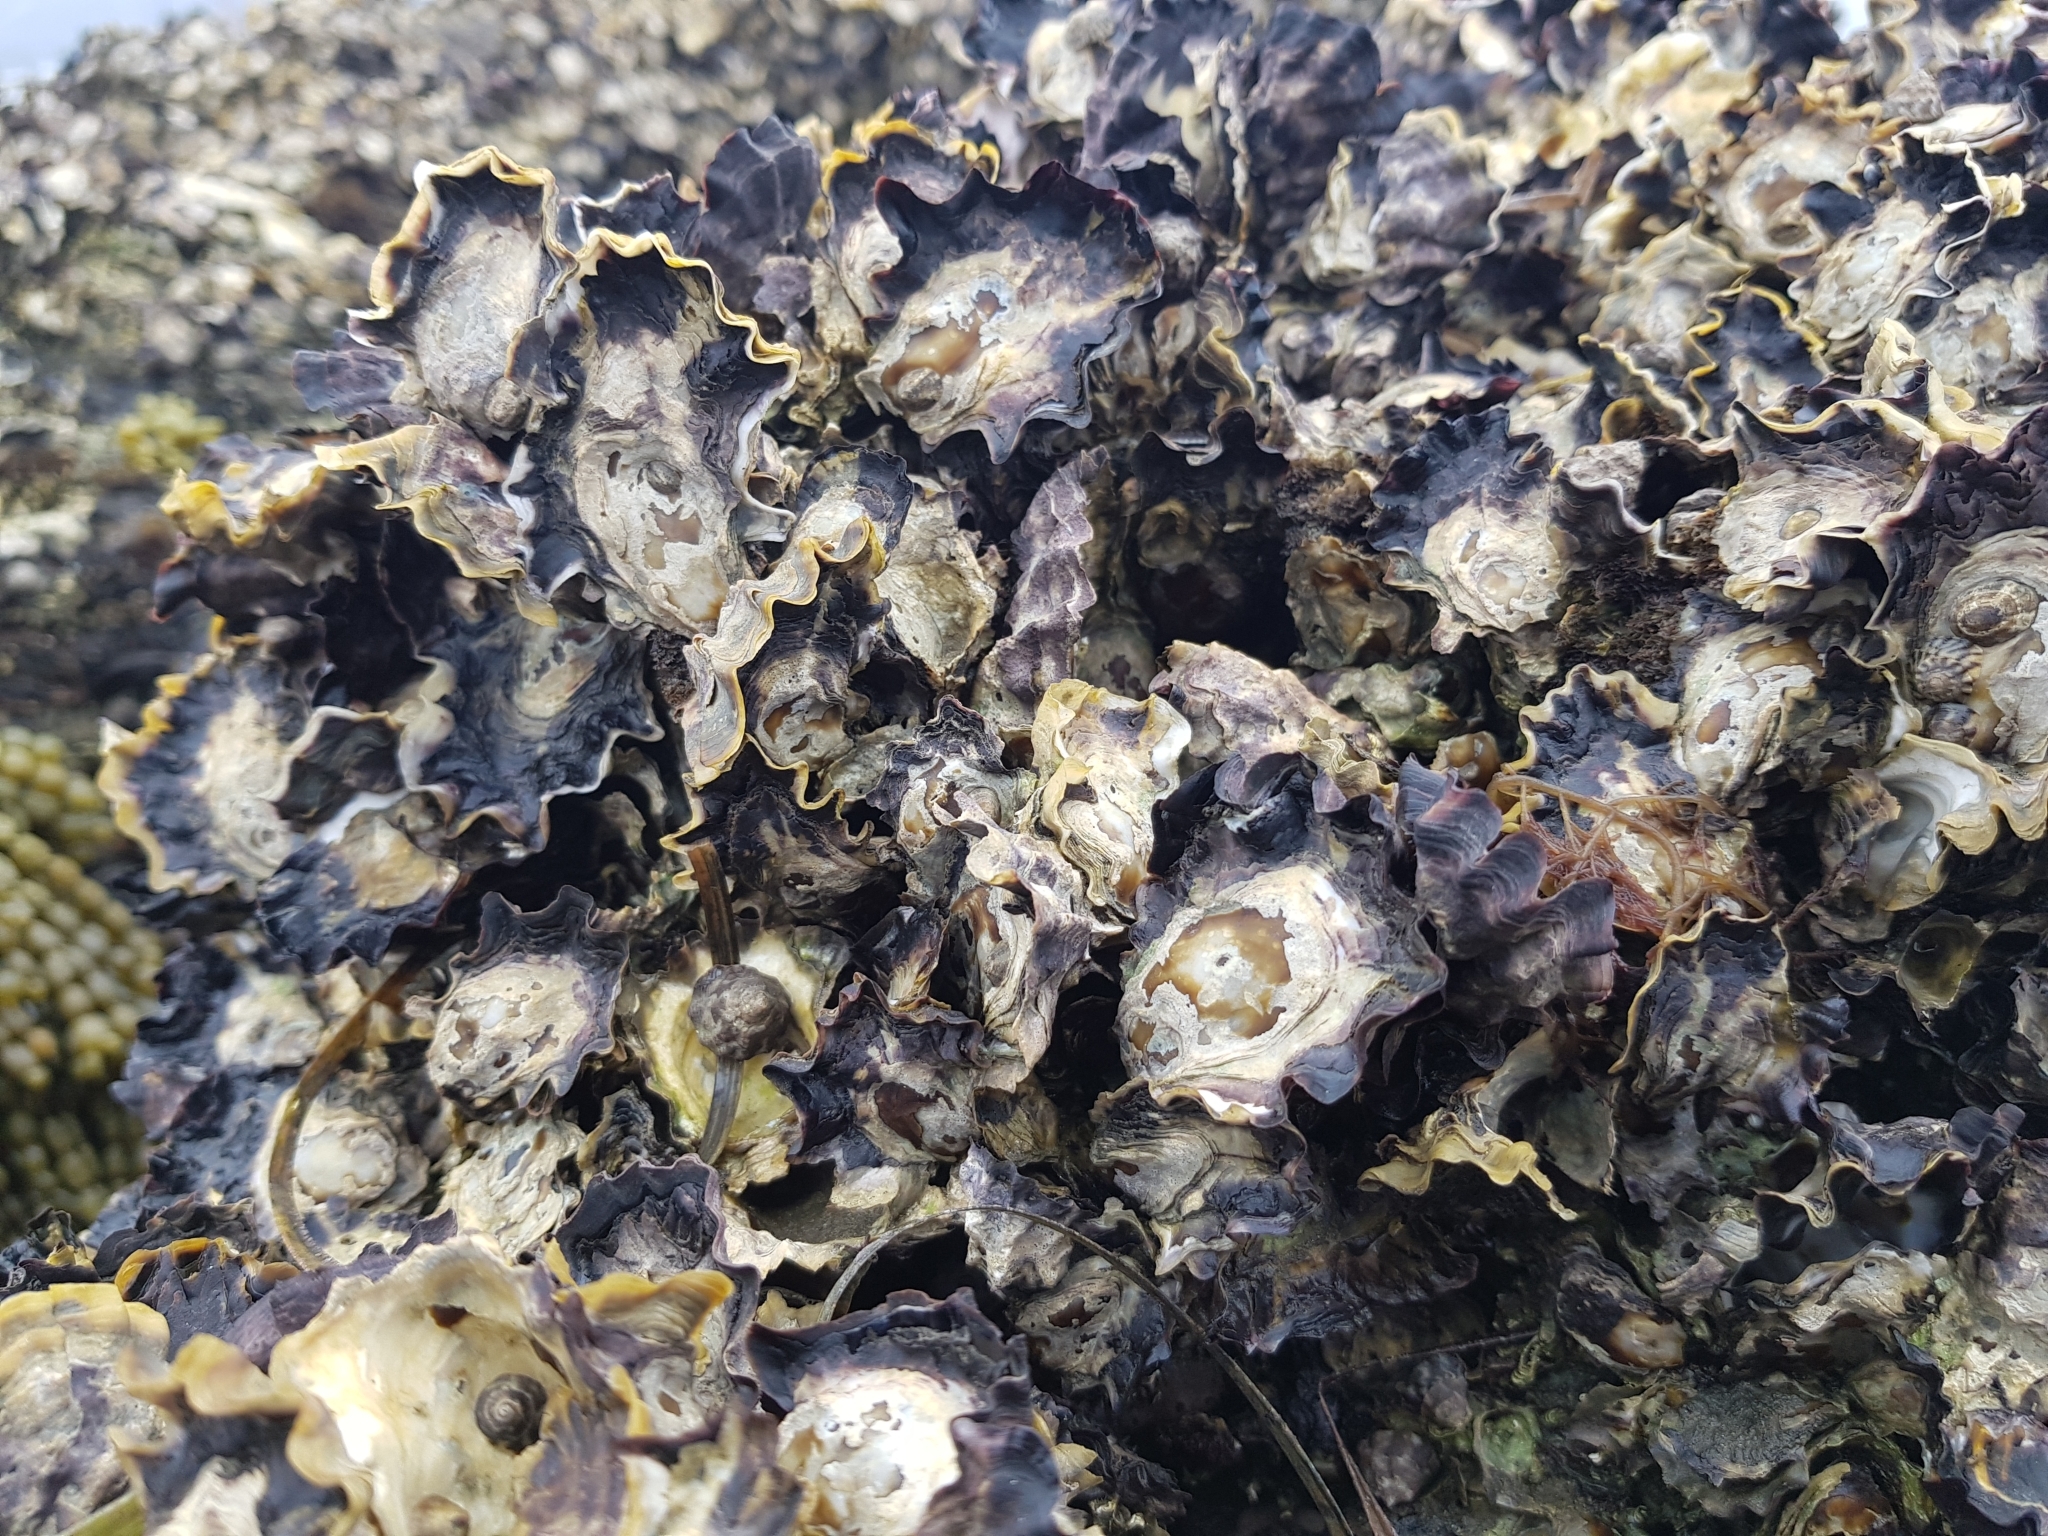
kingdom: Animalia
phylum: Mollusca
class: Bivalvia
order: Ostreida
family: Ostreidae
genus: Saccostrea
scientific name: Saccostrea glomerata
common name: Sydney cupped oyster
